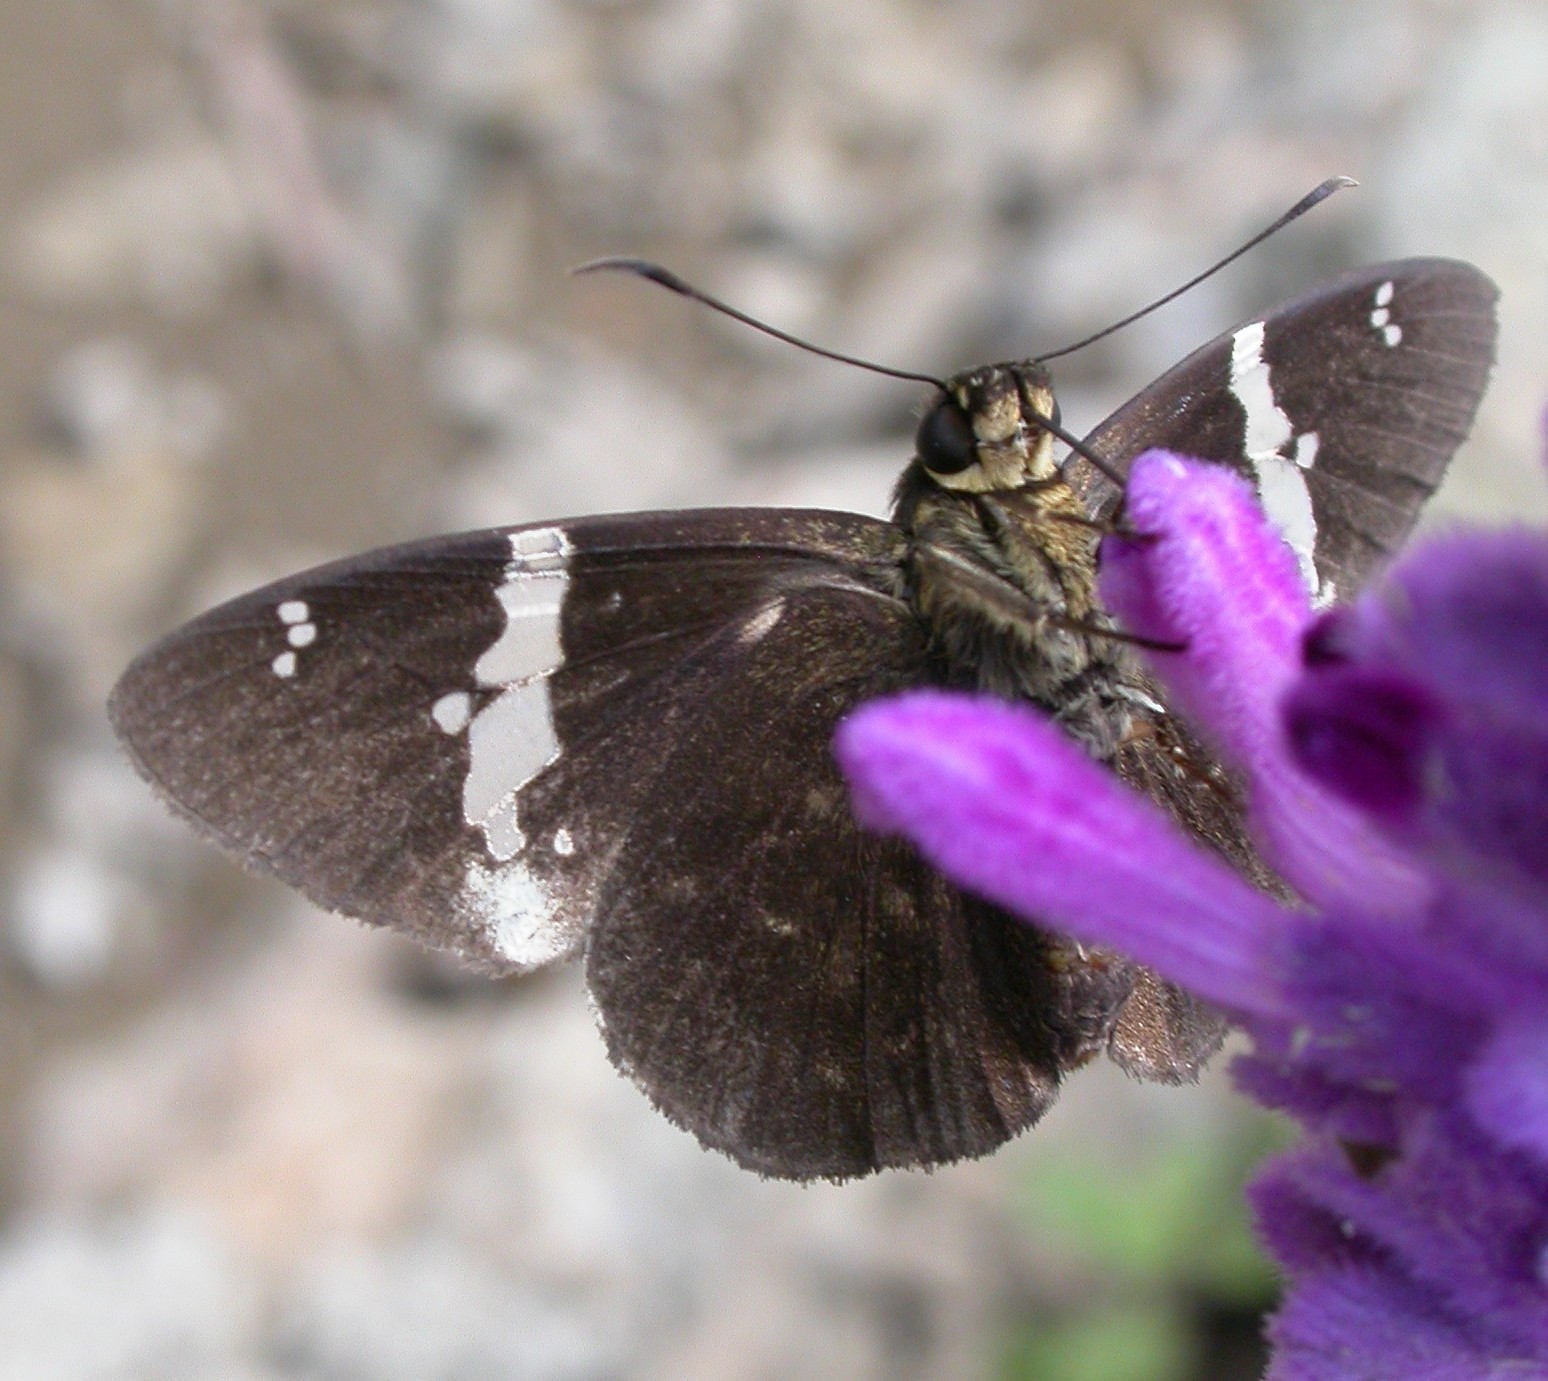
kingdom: Animalia
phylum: Arthropoda
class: Insecta
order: Lepidoptera
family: Hesperiidae
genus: Celaenorrhinus
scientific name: Celaenorrhinus stallingsi
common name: Stallings's flat
